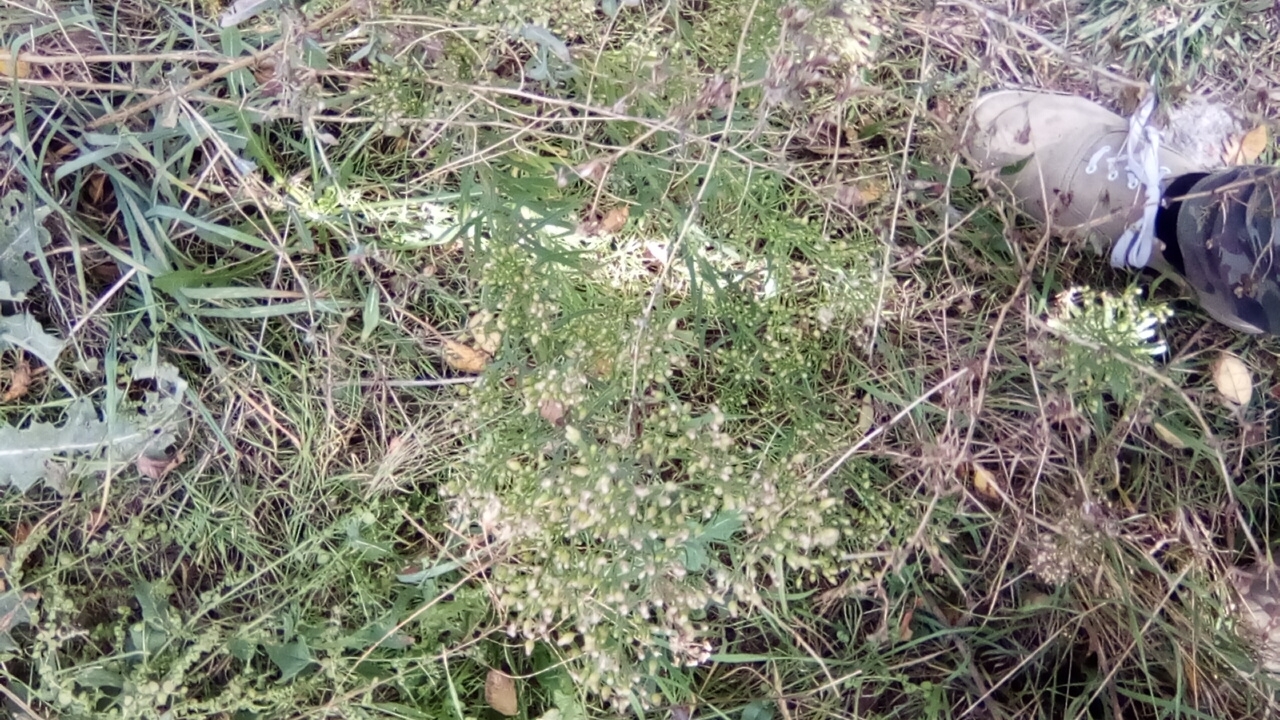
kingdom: Plantae
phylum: Tracheophyta
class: Magnoliopsida
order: Asterales
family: Asteraceae
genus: Erigeron
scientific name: Erigeron canadensis
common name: Canadian fleabane
